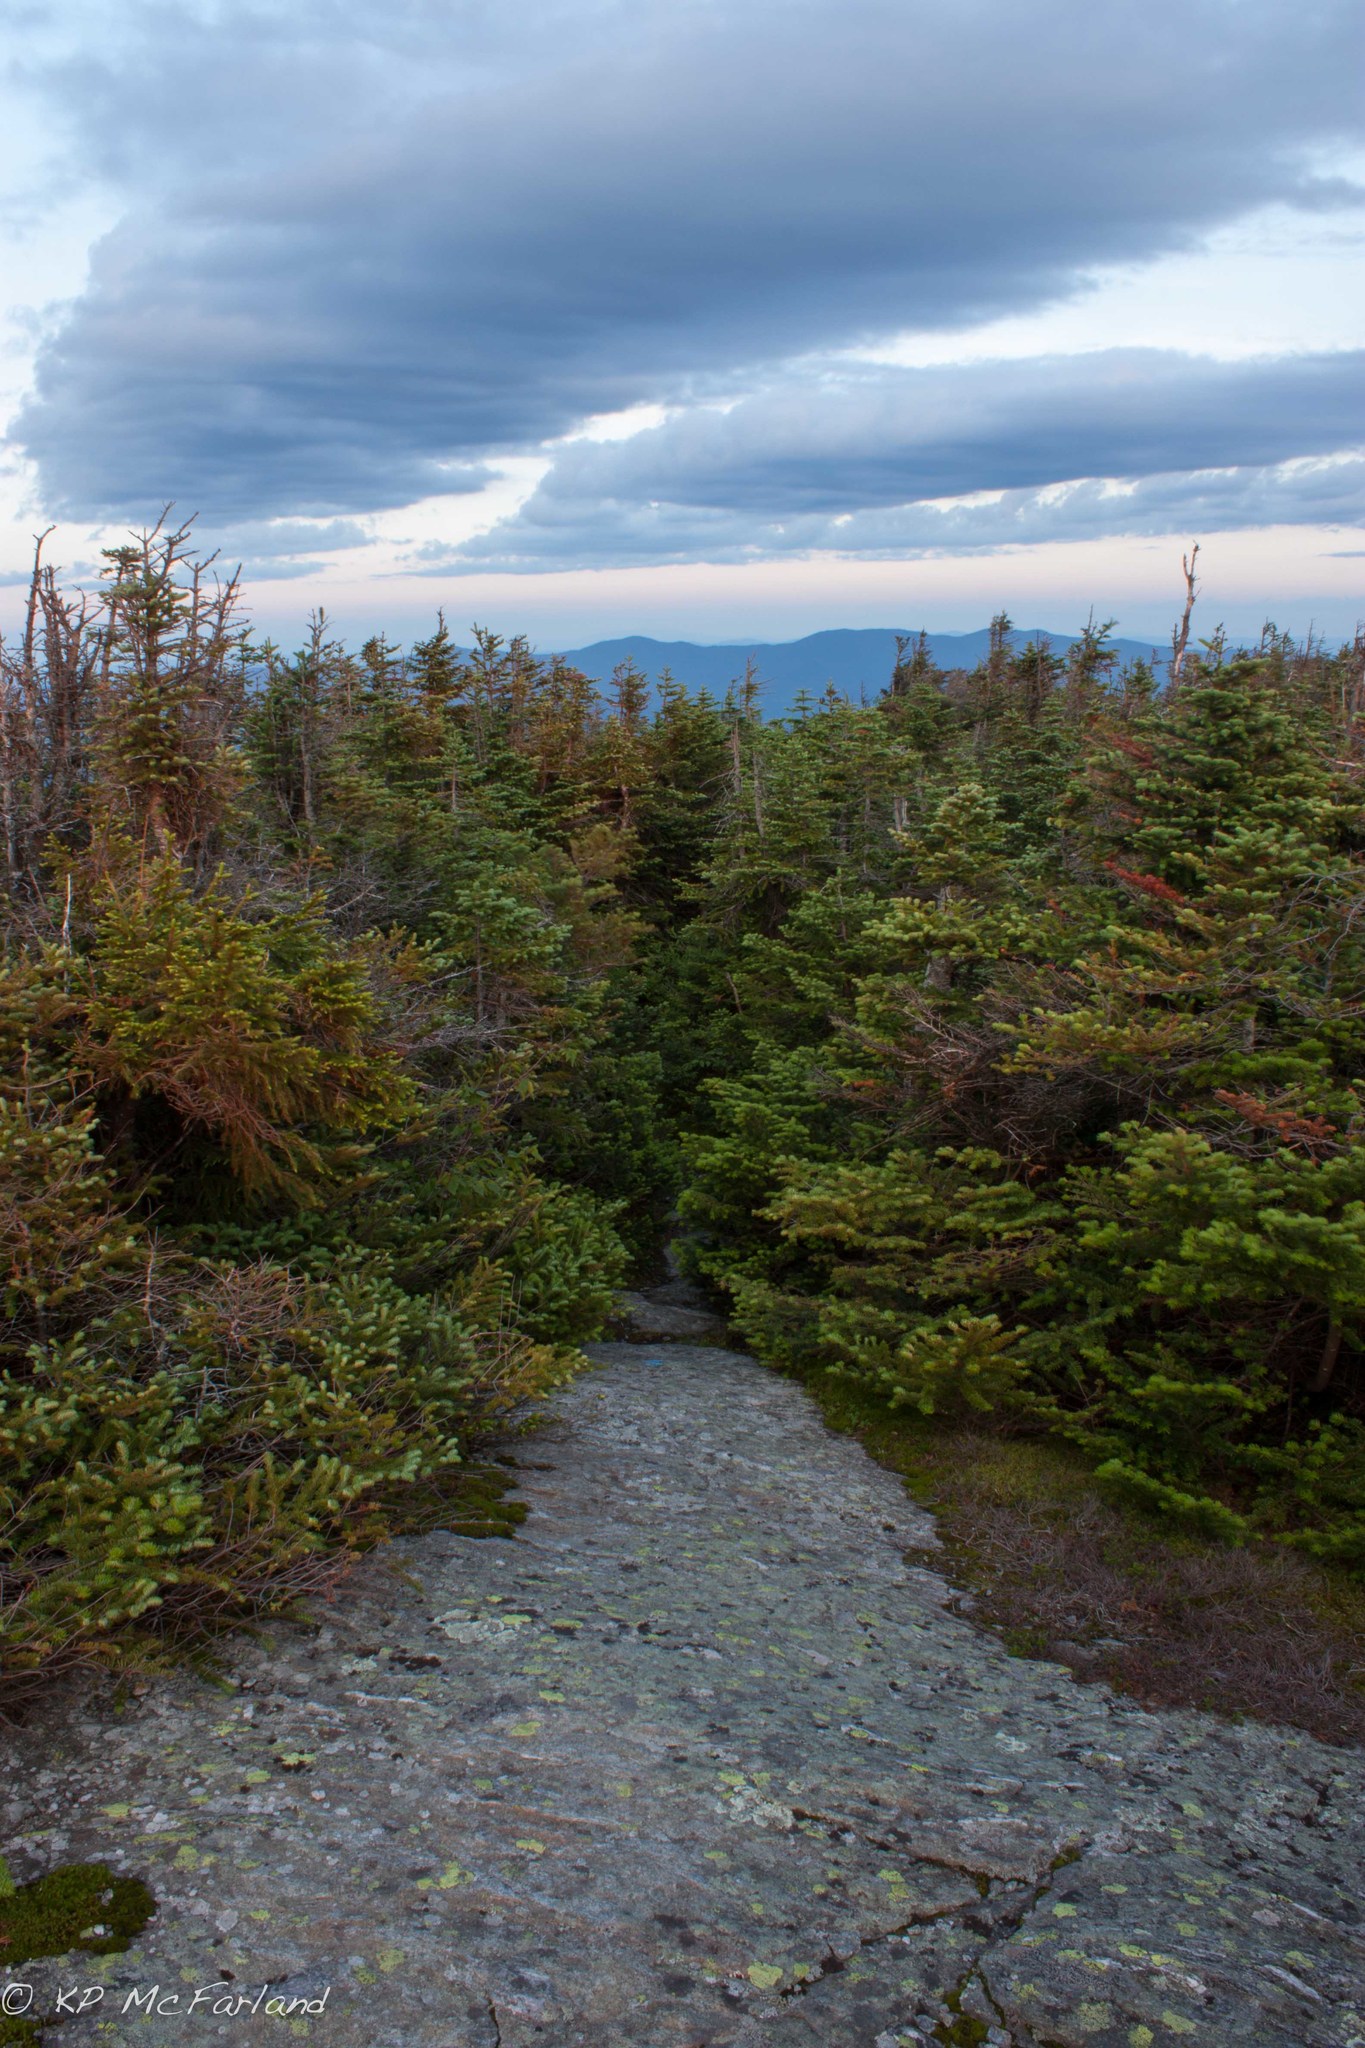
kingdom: Plantae
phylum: Tracheophyta
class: Pinopsida
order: Pinales
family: Pinaceae
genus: Abies
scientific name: Abies balsamea
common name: Balsam fir
